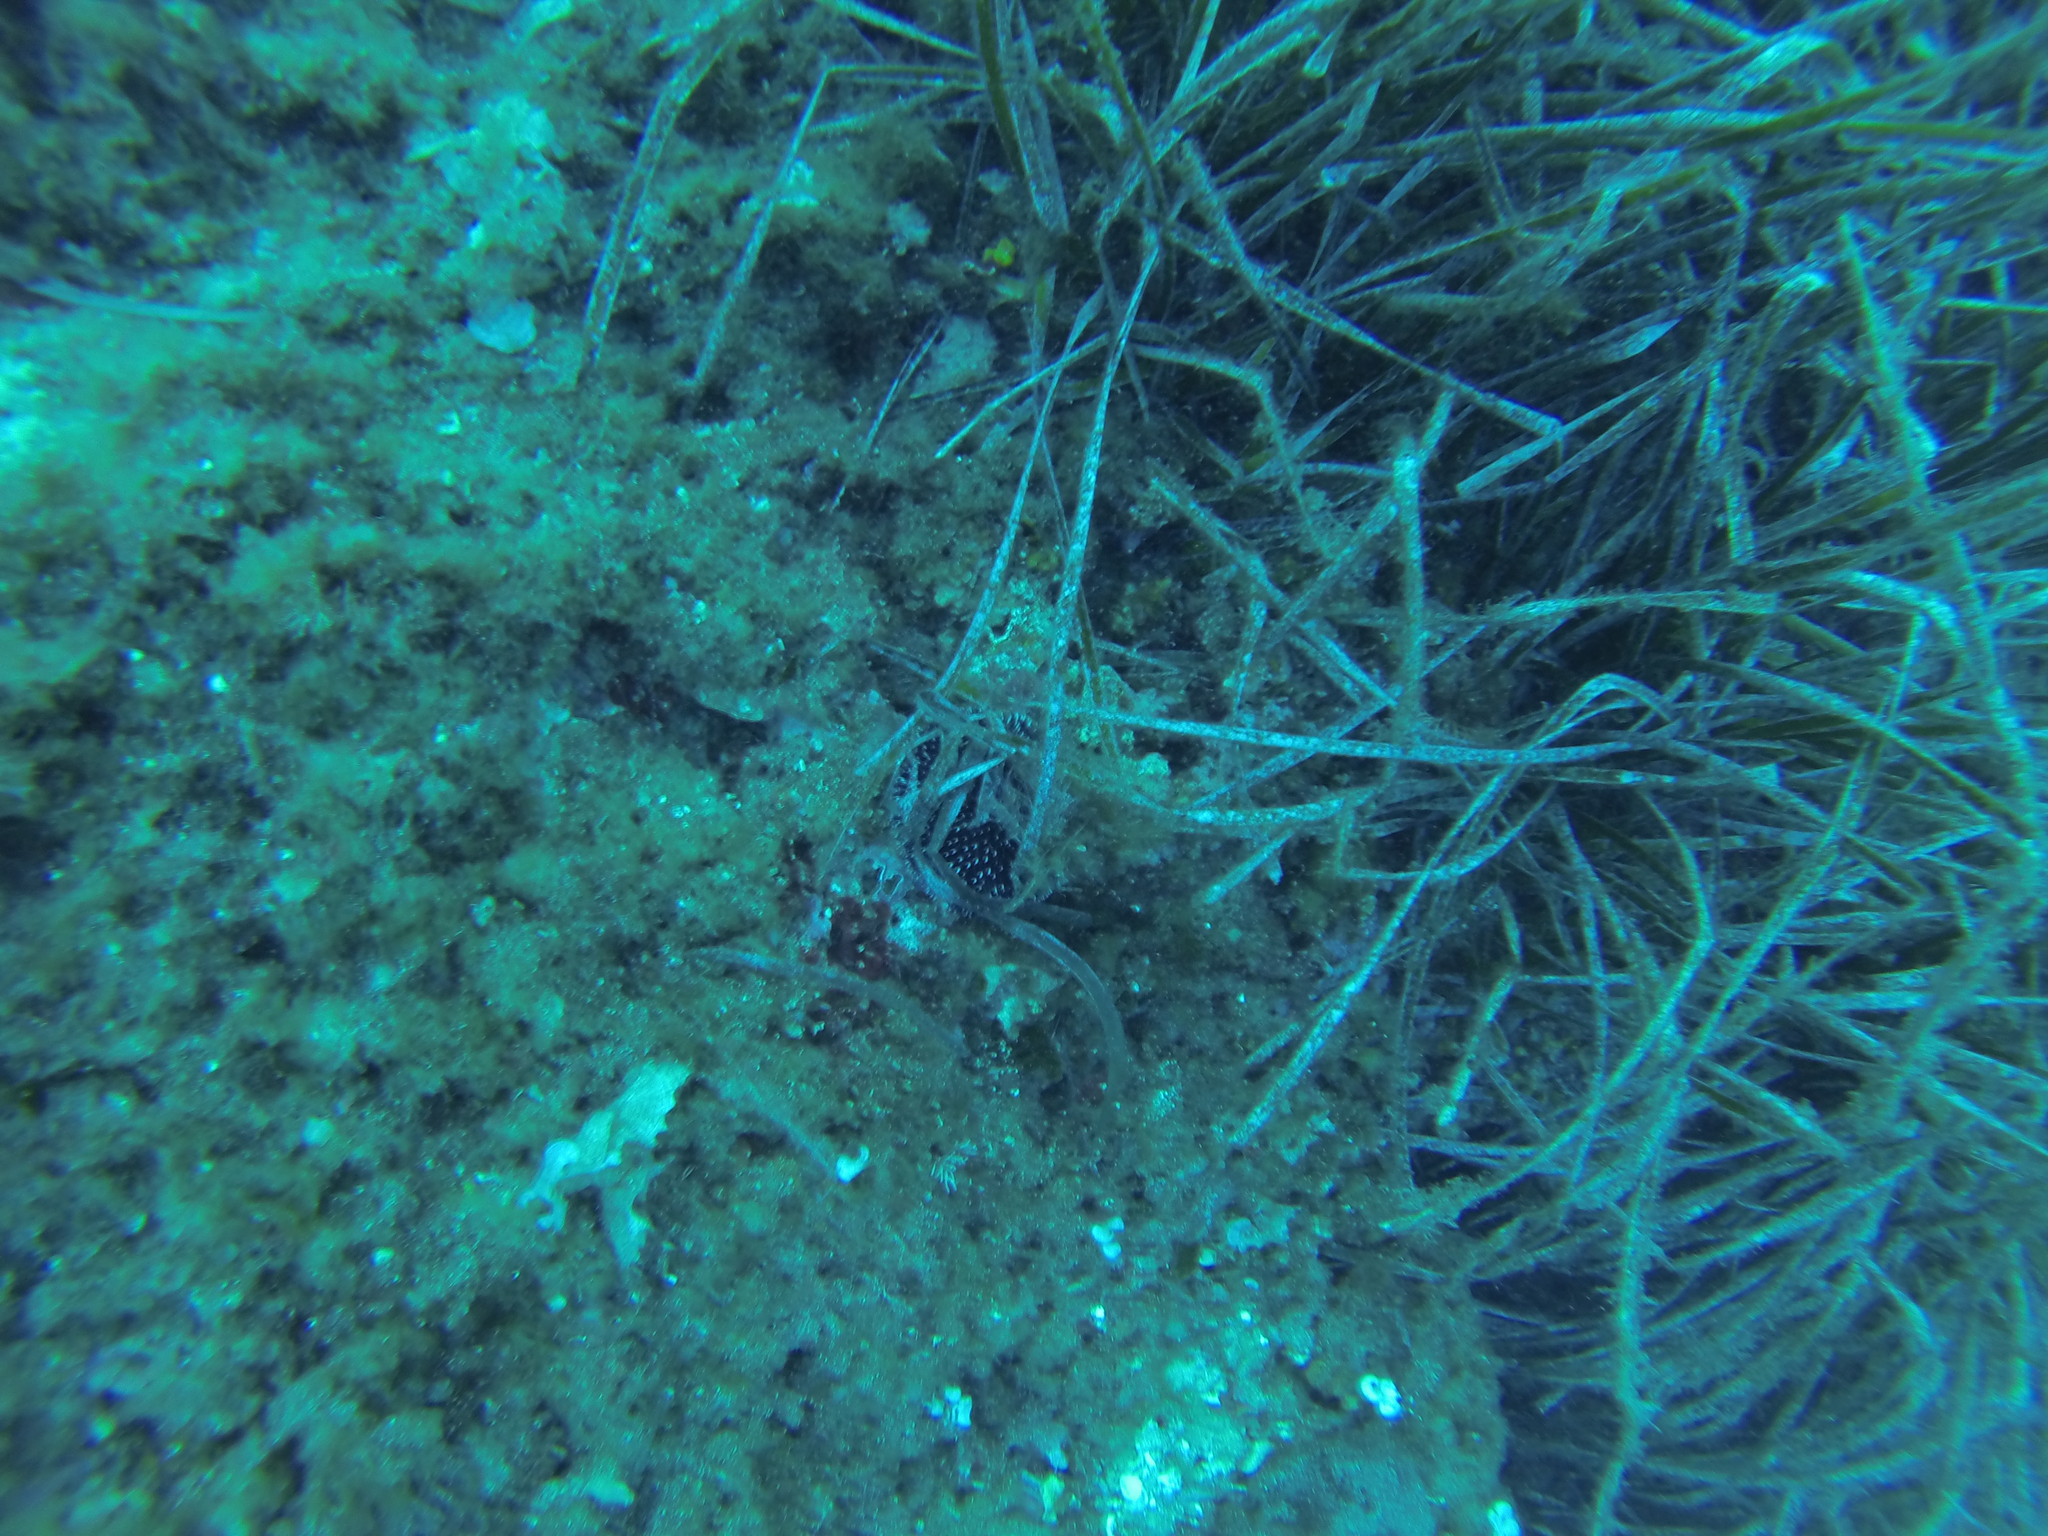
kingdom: Animalia
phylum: Echinodermata
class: Echinoidea
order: Camarodonta
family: Toxopneustidae
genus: Sphaerechinus
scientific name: Sphaerechinus granularis
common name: Violet sea urchin
